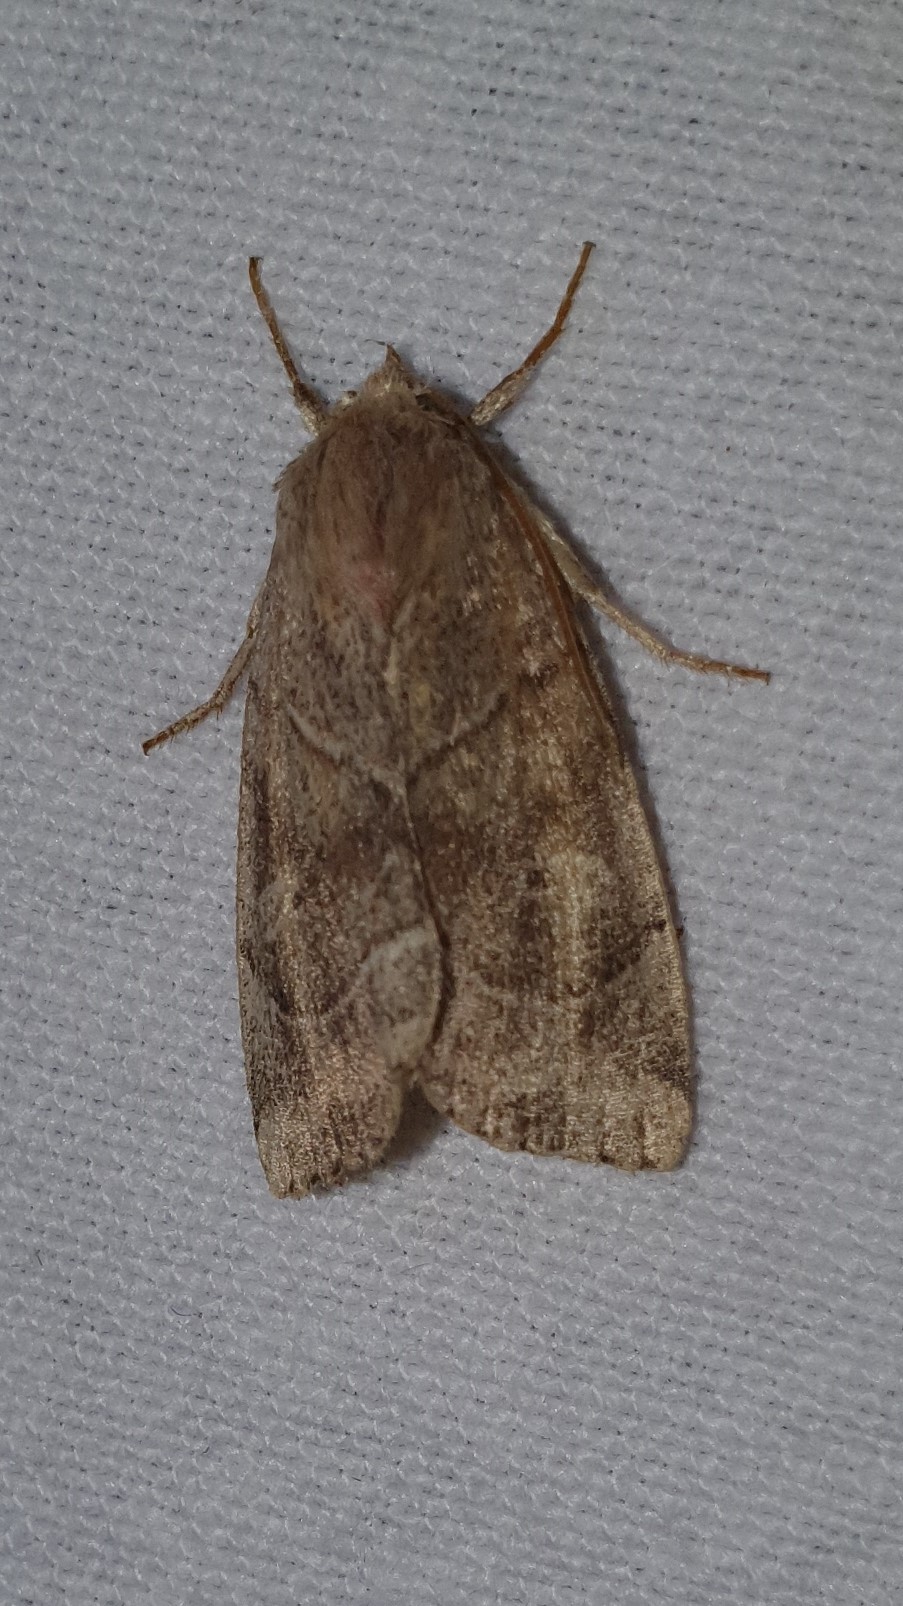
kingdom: Animalia
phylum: Arthropoda
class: Insecta
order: Lepidoptera
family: Noctuidae
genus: Cosmia
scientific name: Cosmia trapezina
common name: Dun-bar
